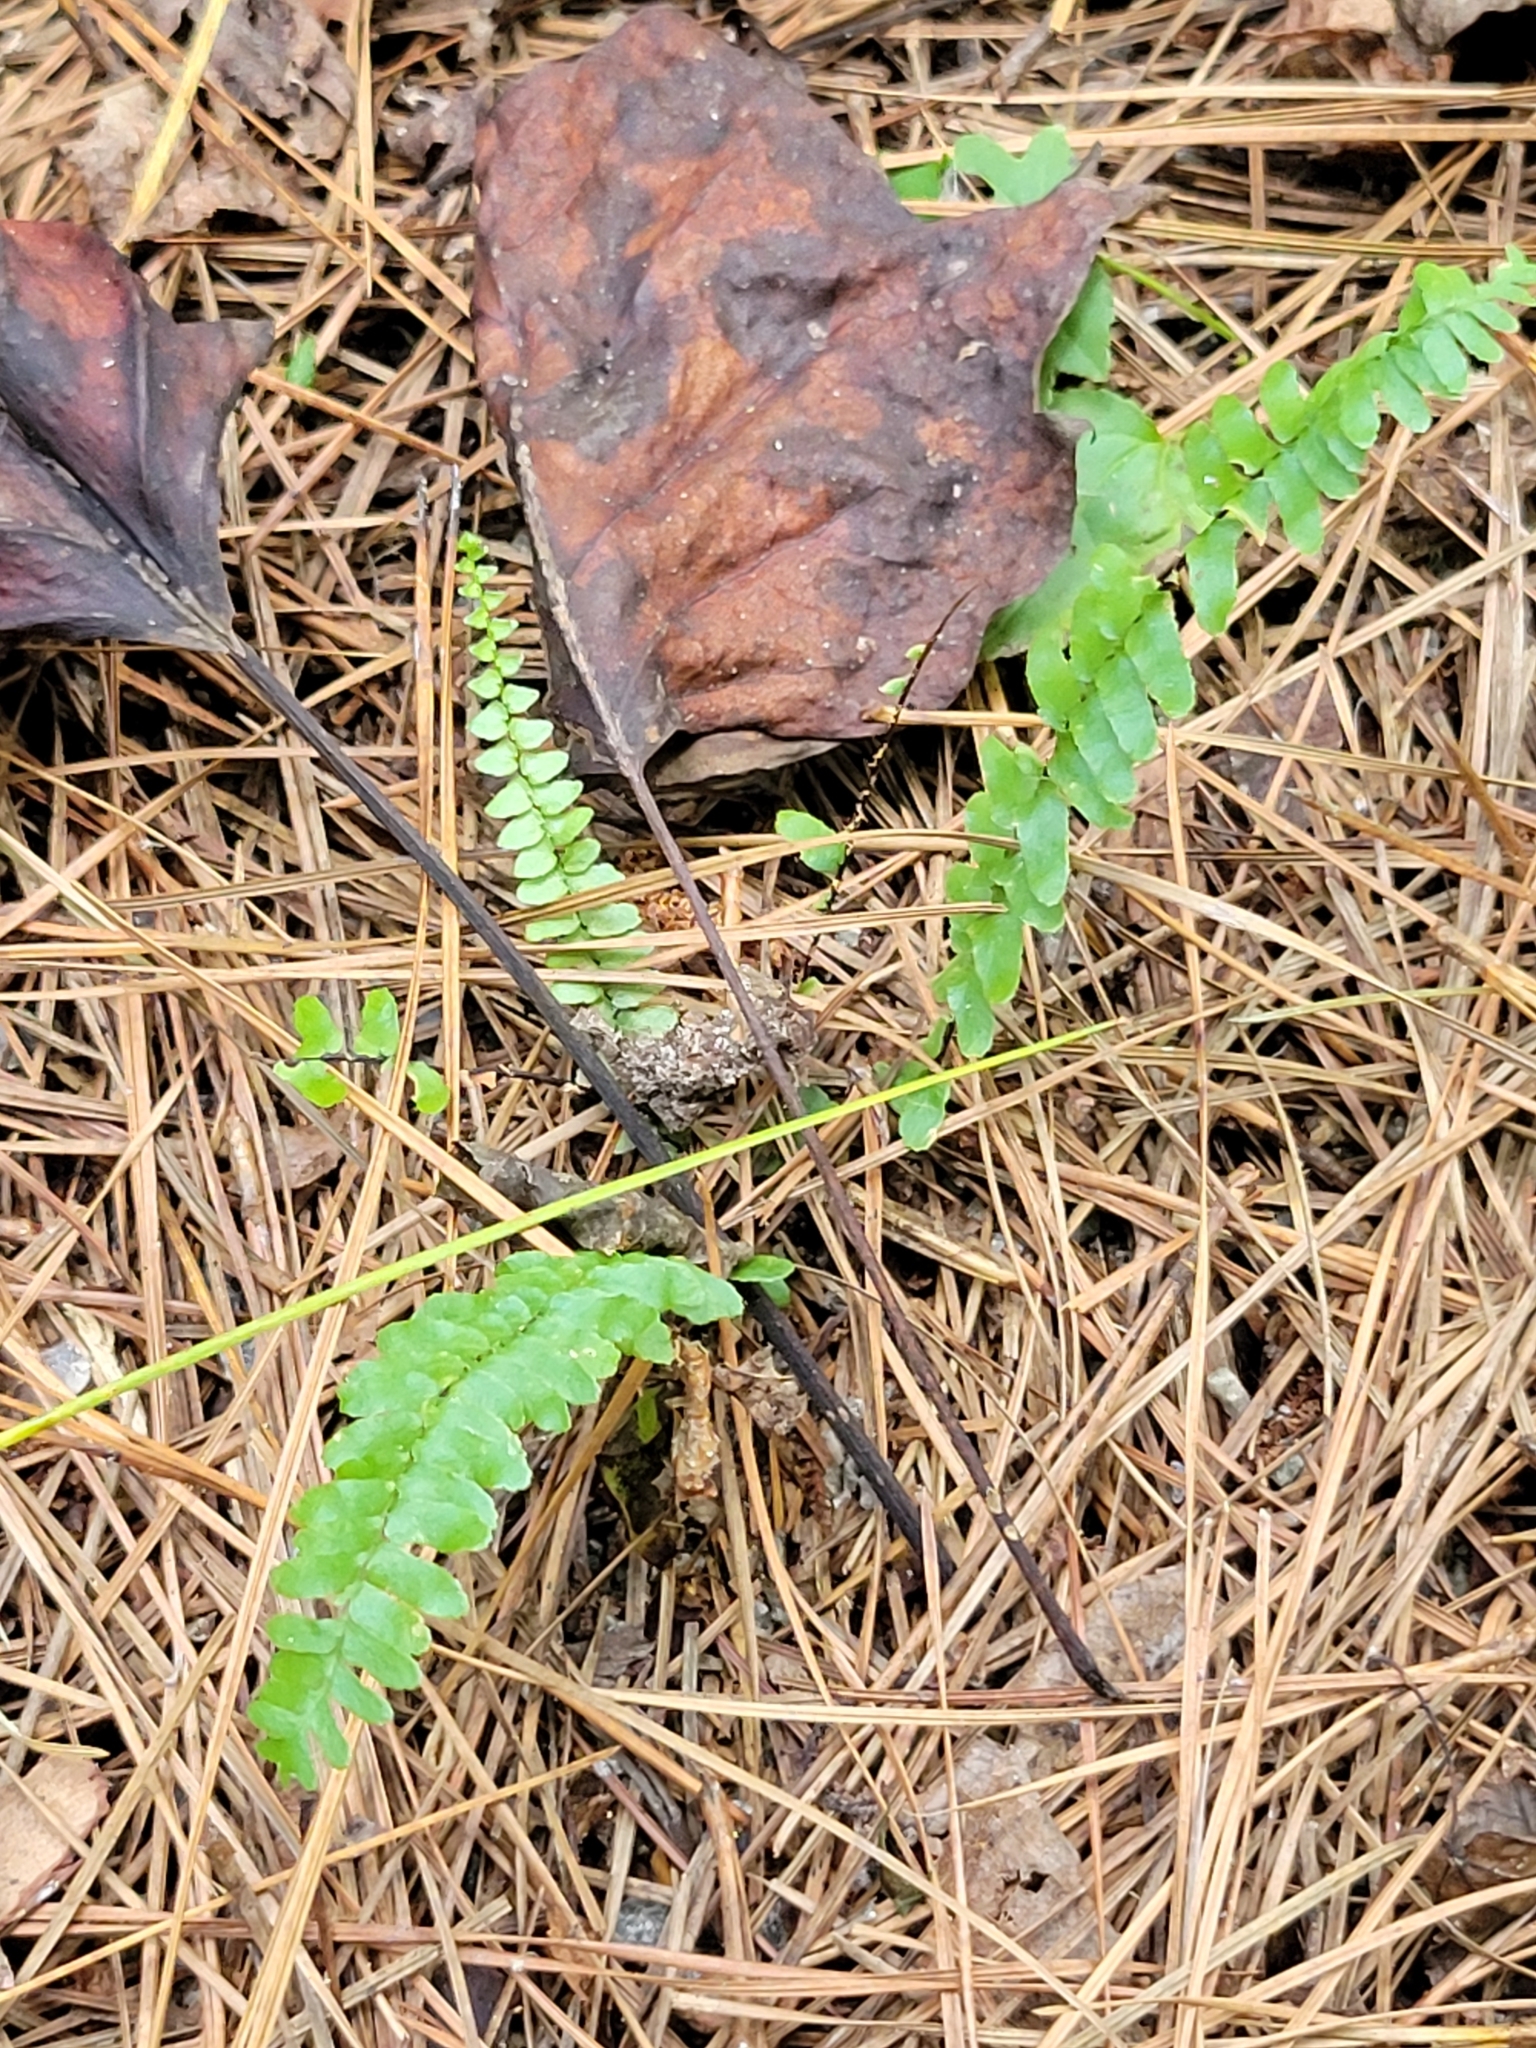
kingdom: Plantae
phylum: Tracheophyta
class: Polypodiopsida
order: Polypodiales
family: Aspleniaceae
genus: Asplenium
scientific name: Asplenium platyneuron
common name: Ebony spleenwort
